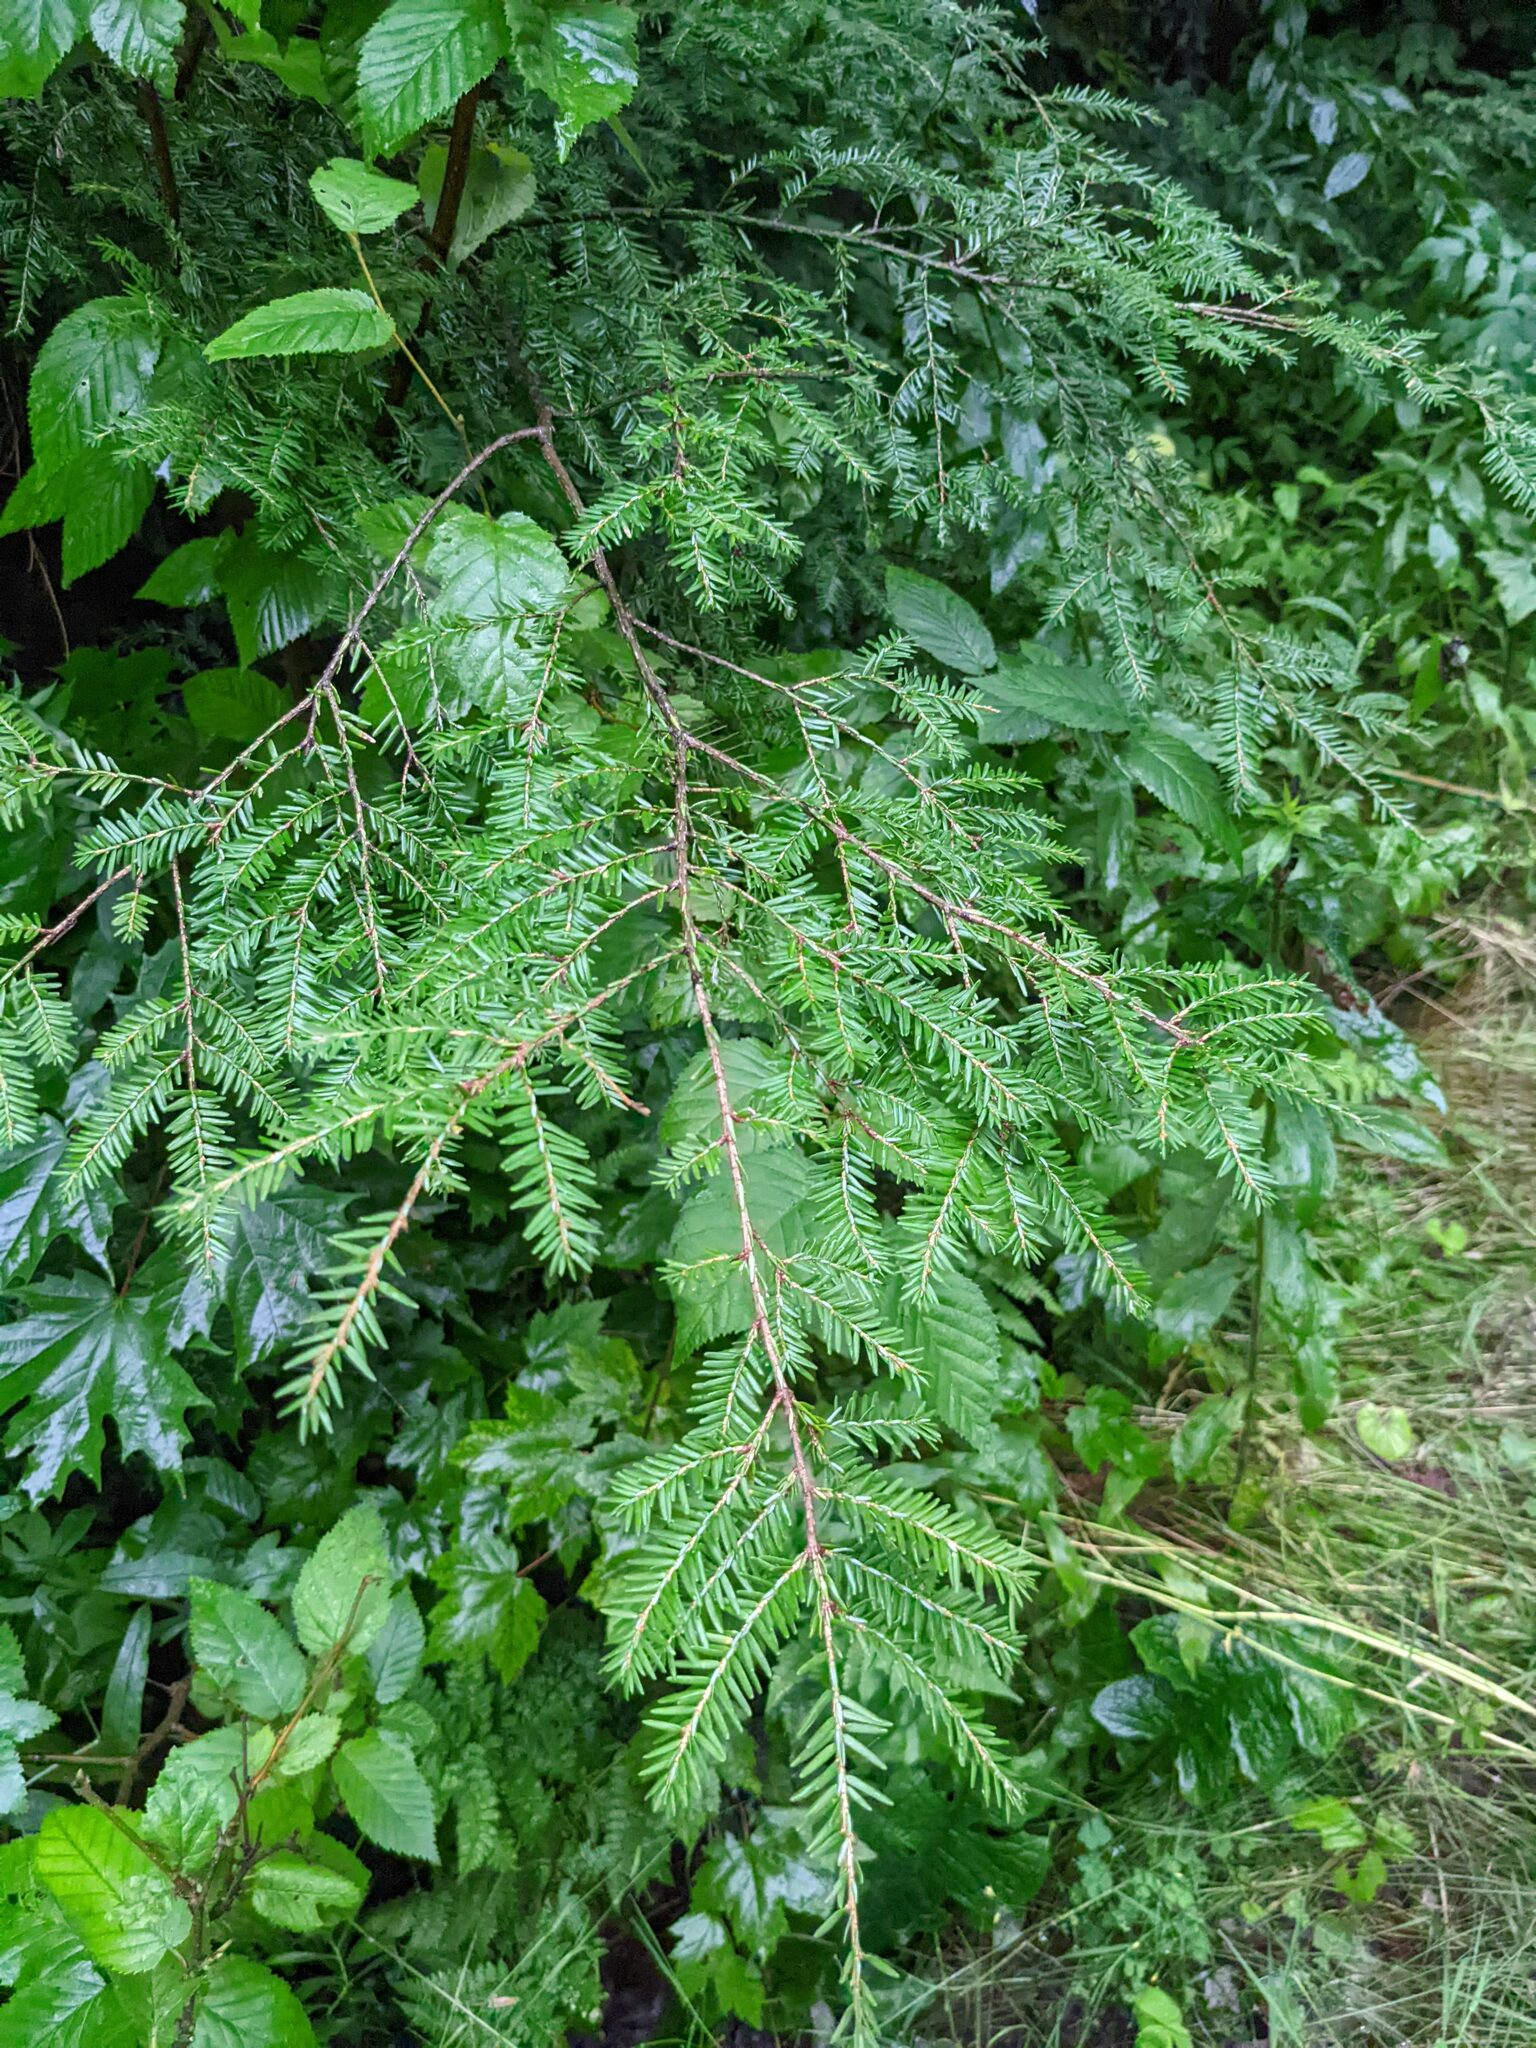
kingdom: Plantae
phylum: Tracheophyta
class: Pinopsida
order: Pinales
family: Pinaceae
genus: Tsuga
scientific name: Tsuga canadensis
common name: Eastern hemlock
